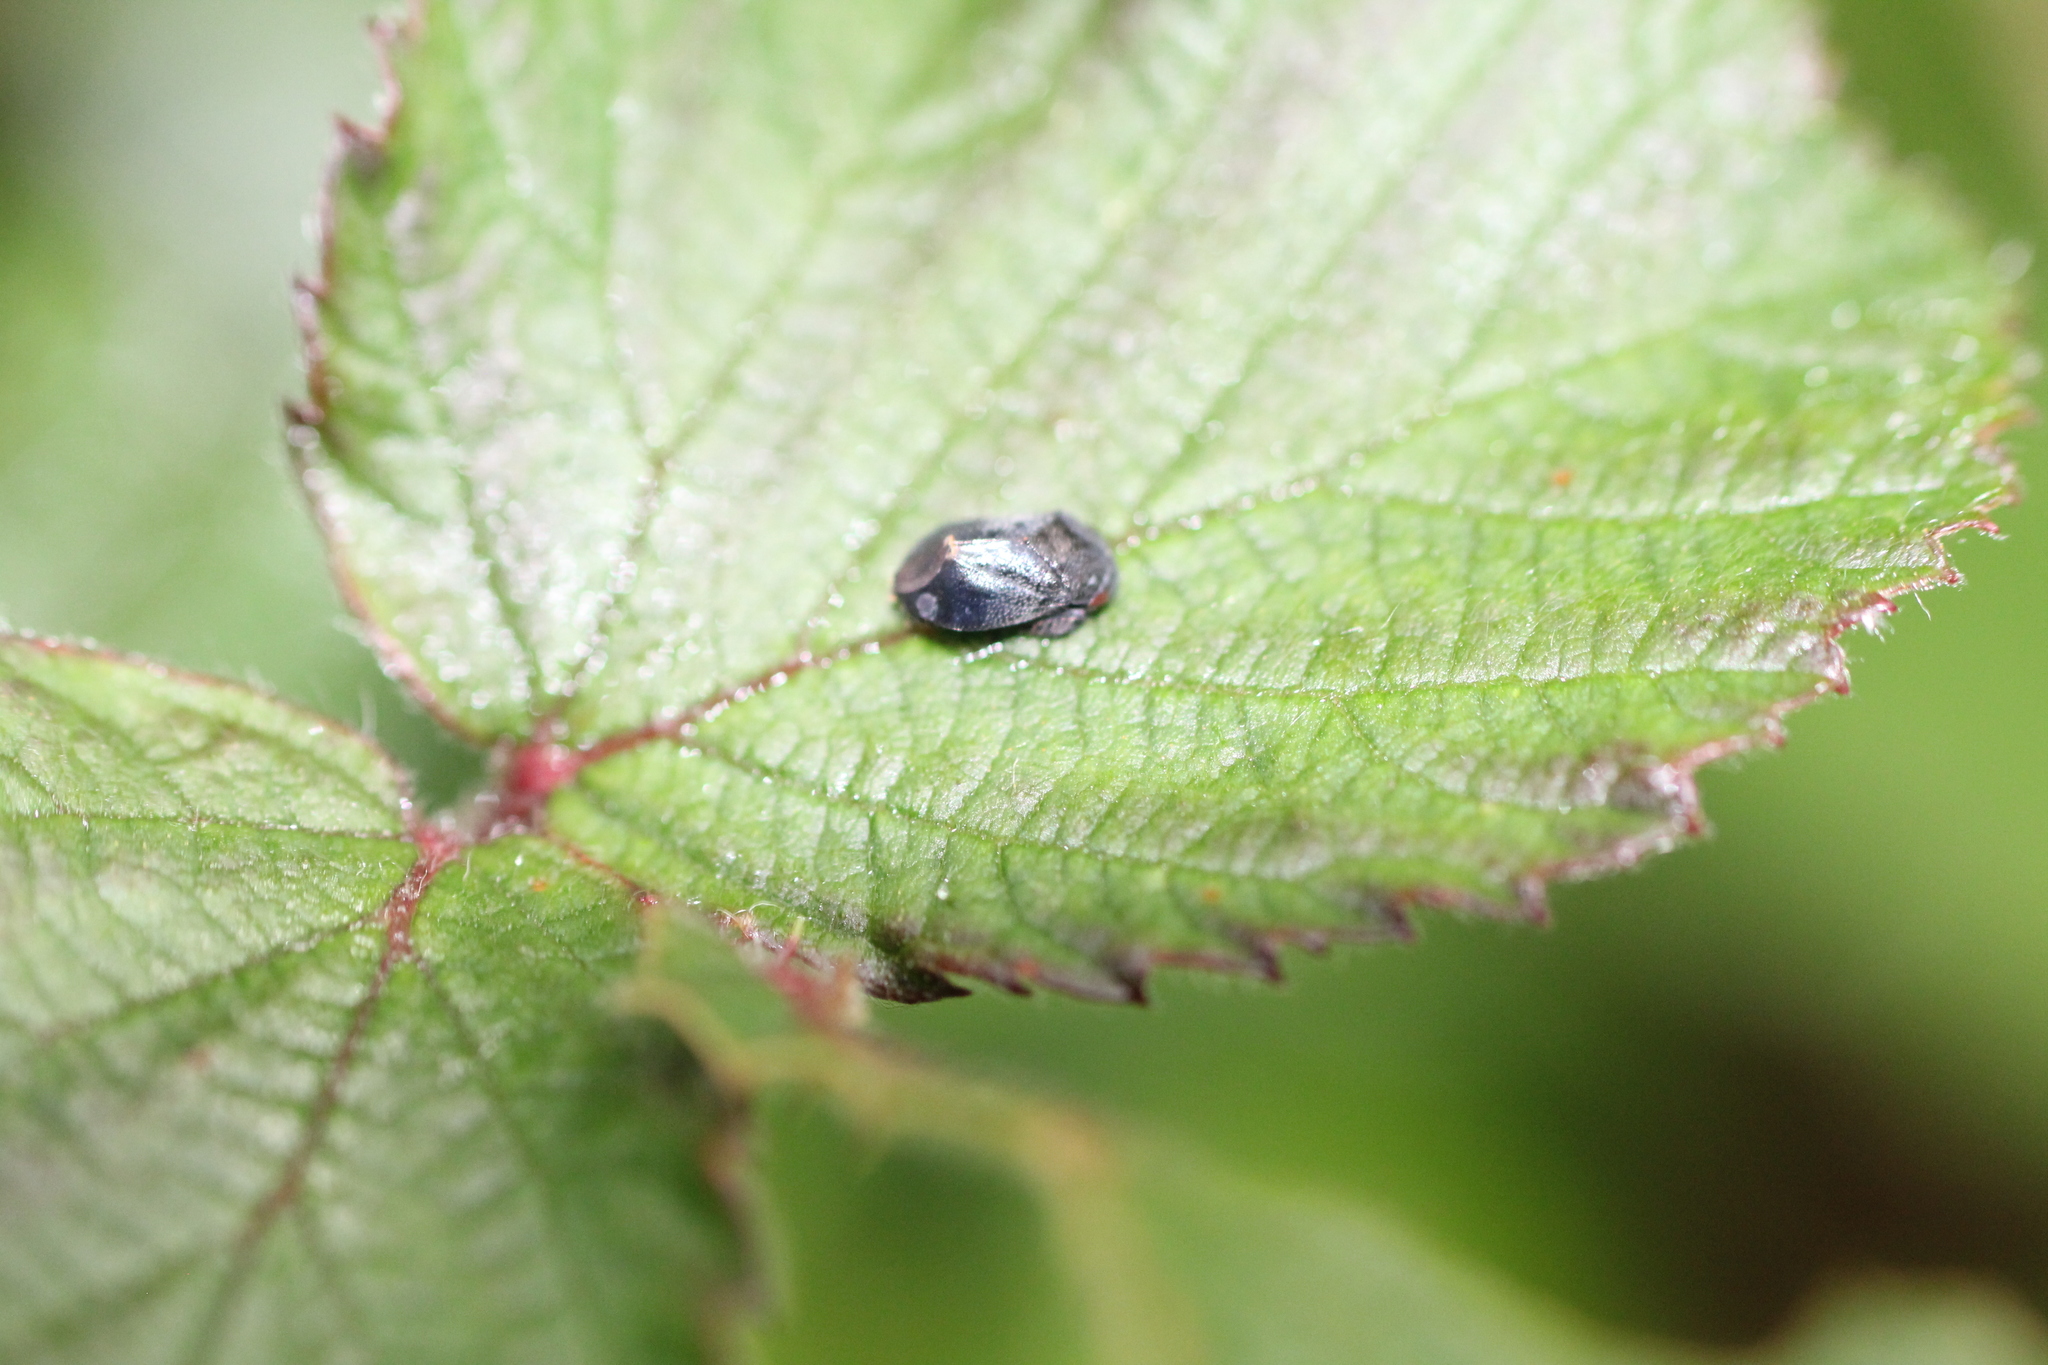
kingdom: Animalia
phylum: Arthropoda
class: Insecta
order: Hemiptera
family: Cicadellidae
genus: Penthimia
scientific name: Penthimia nigra
